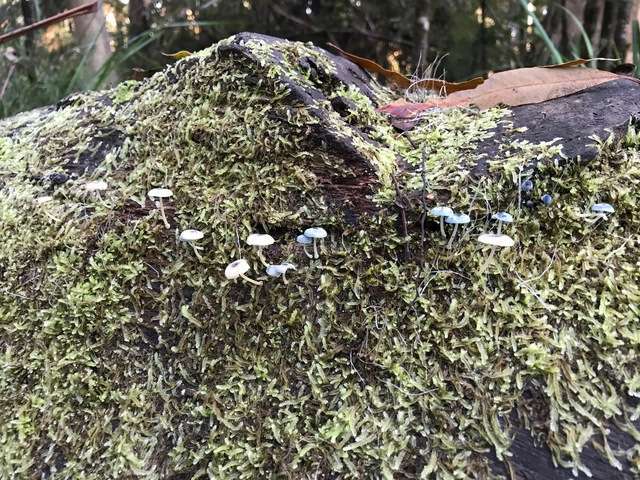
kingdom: Fungi
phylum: Basidiomycota
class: Agaricomycetes
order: Agaricales
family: Mycenaceae
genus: Mycena
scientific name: Mycena interrupta
